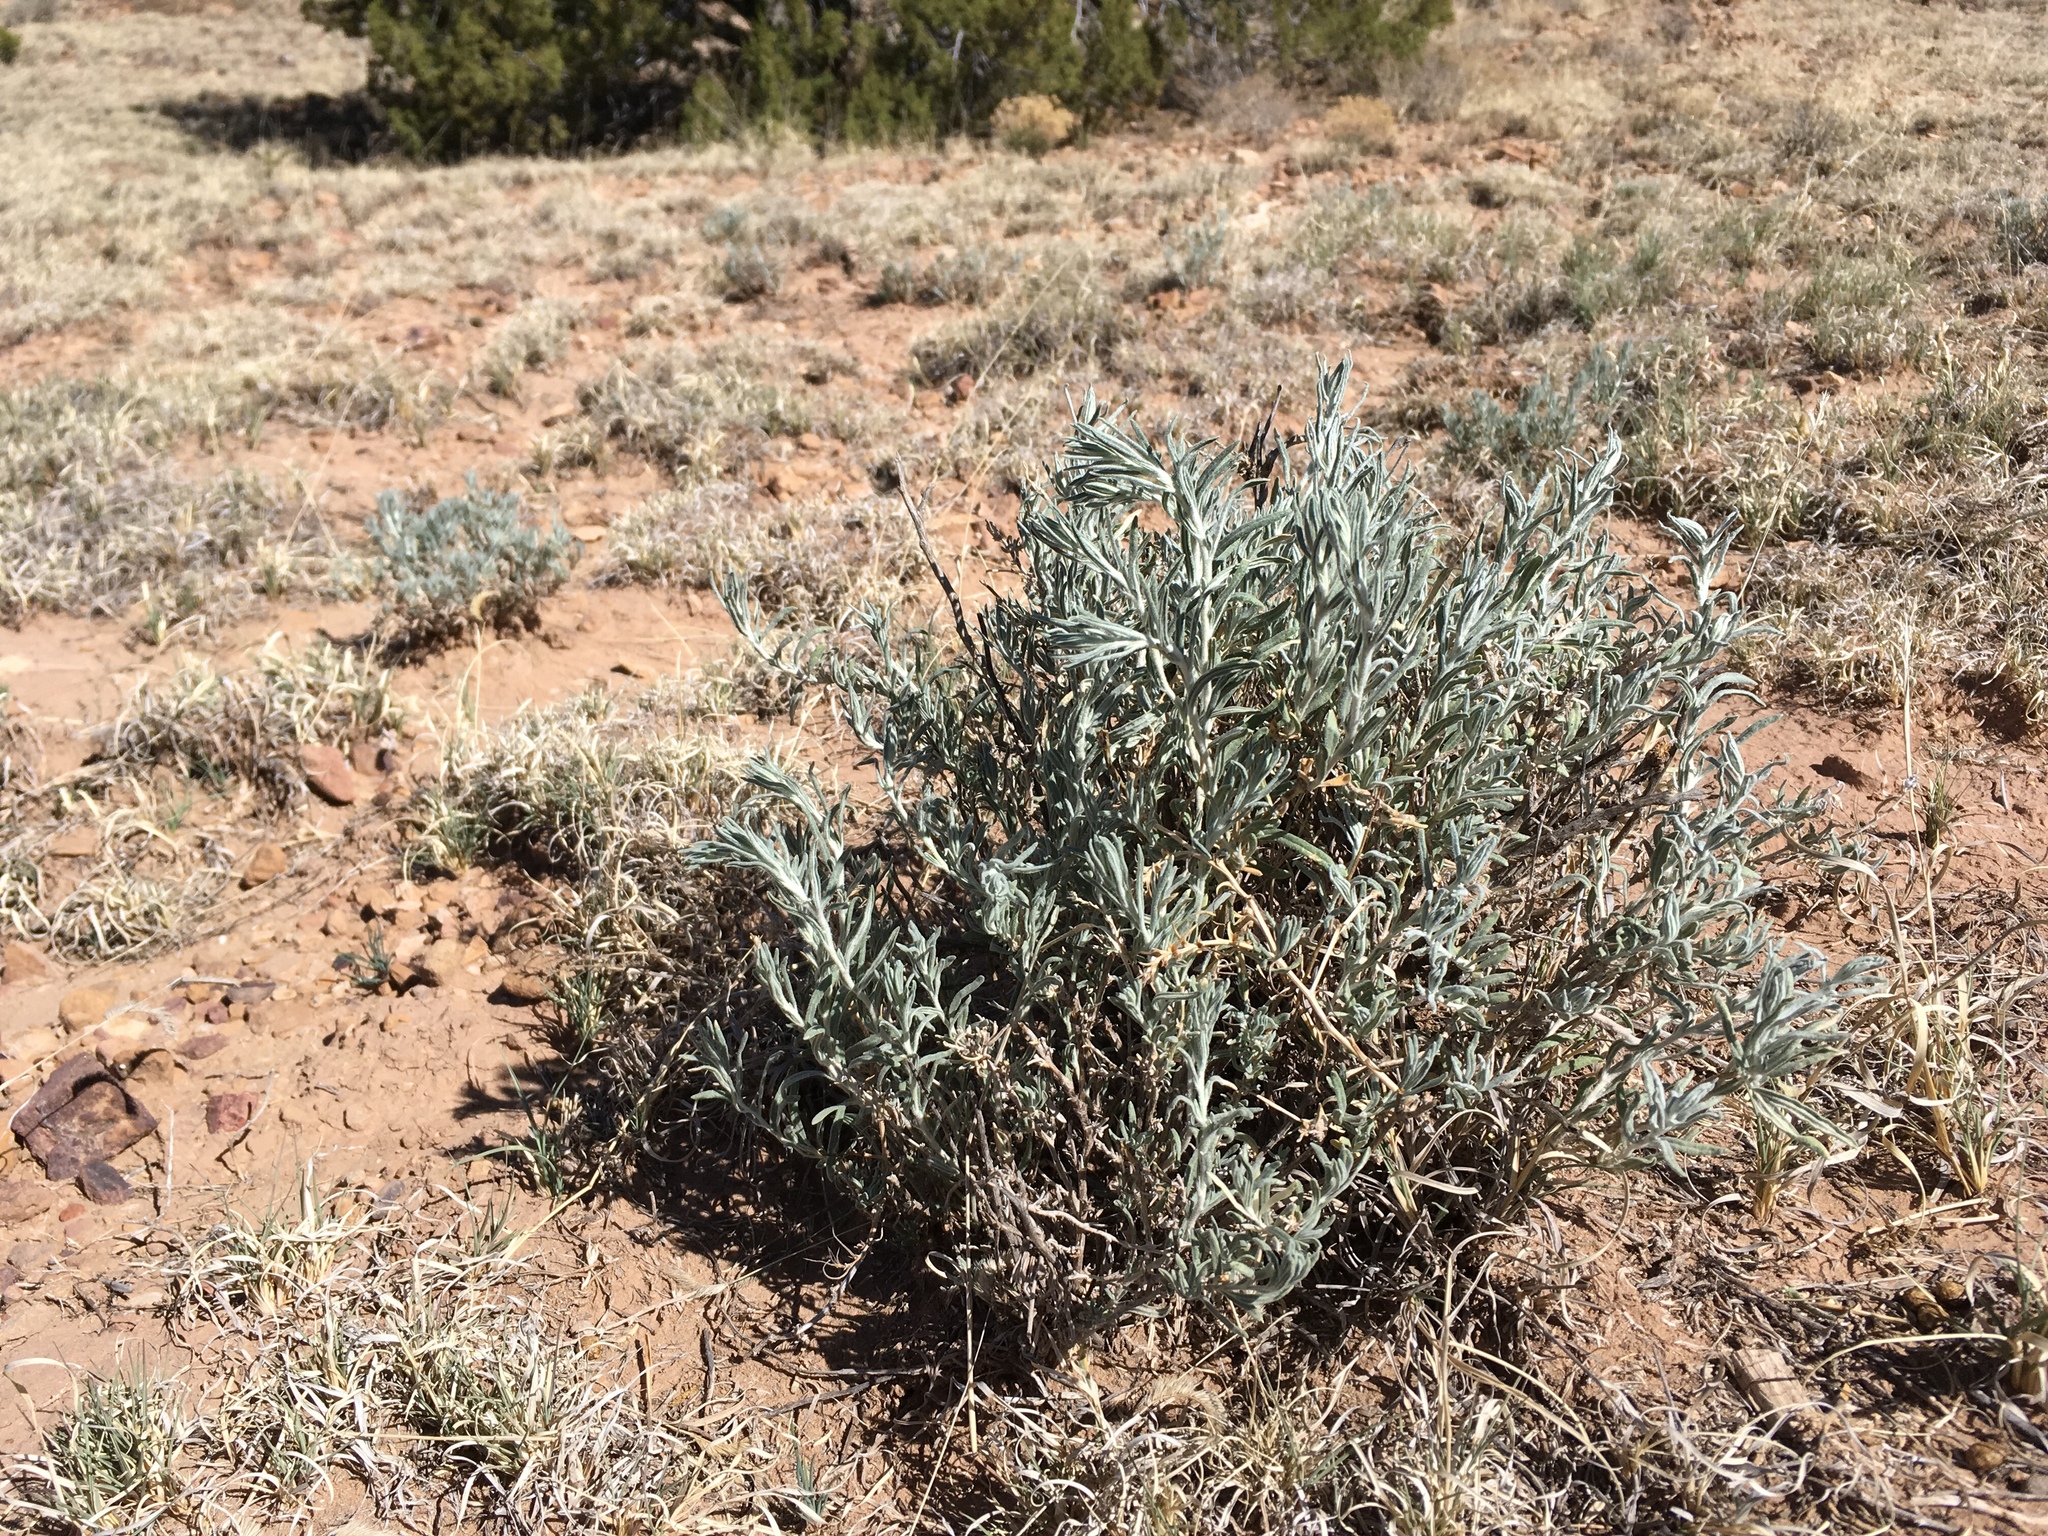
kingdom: Plantae
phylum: Tracheophyta
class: Magnoliopsida
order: Caryophyllales
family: Amaranthaceae
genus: Krascheninnikovia
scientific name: Krascheninnikovia lanata
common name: Winterfat
